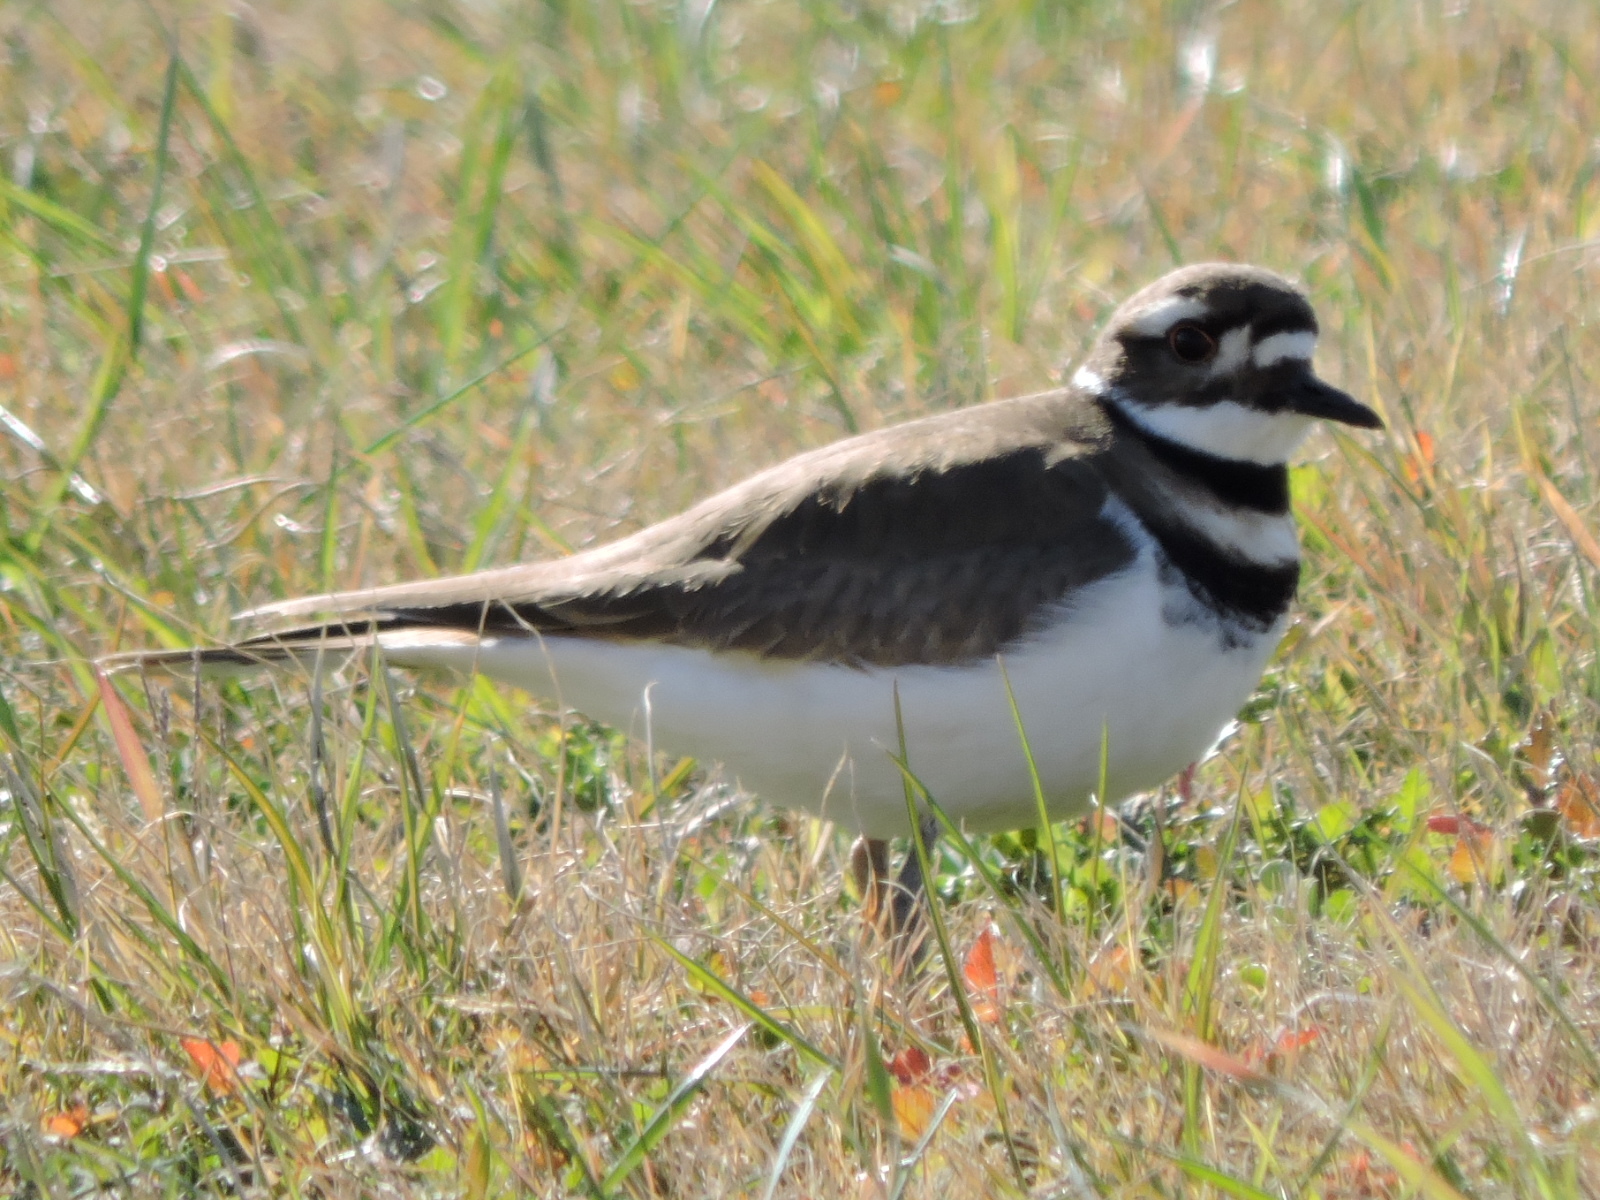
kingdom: Animalia
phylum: Chordata
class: Aves
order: Charadriiformes
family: Charadriidae
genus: Charadrius
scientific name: Charadrius vociferus
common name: Killdeer
